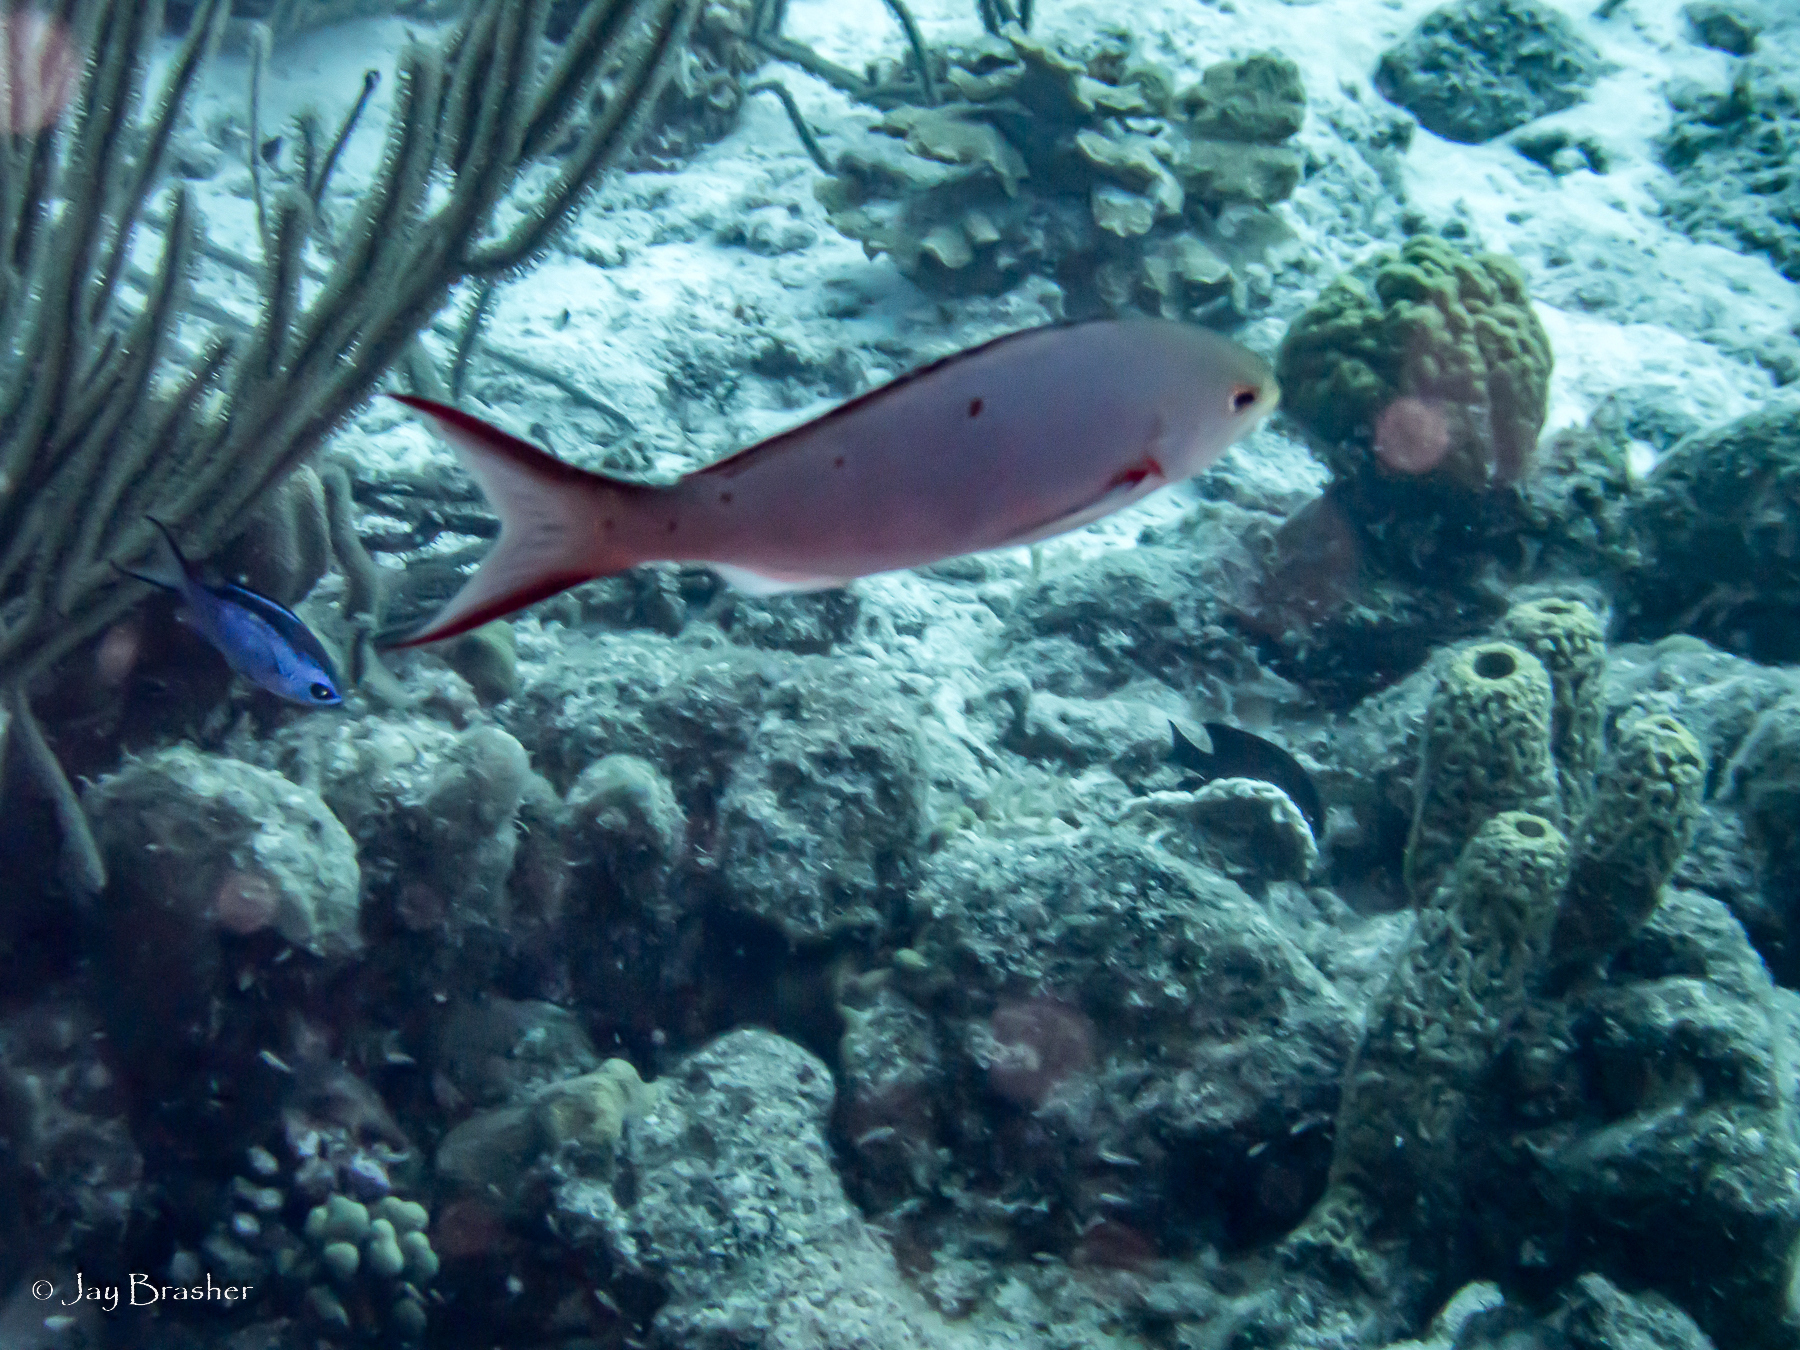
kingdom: Animalia
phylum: Cnidaria
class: Anthozoa
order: Scleractinia
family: Poritidae
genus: Porites
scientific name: Porites astreoides
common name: Mustard hill coral
